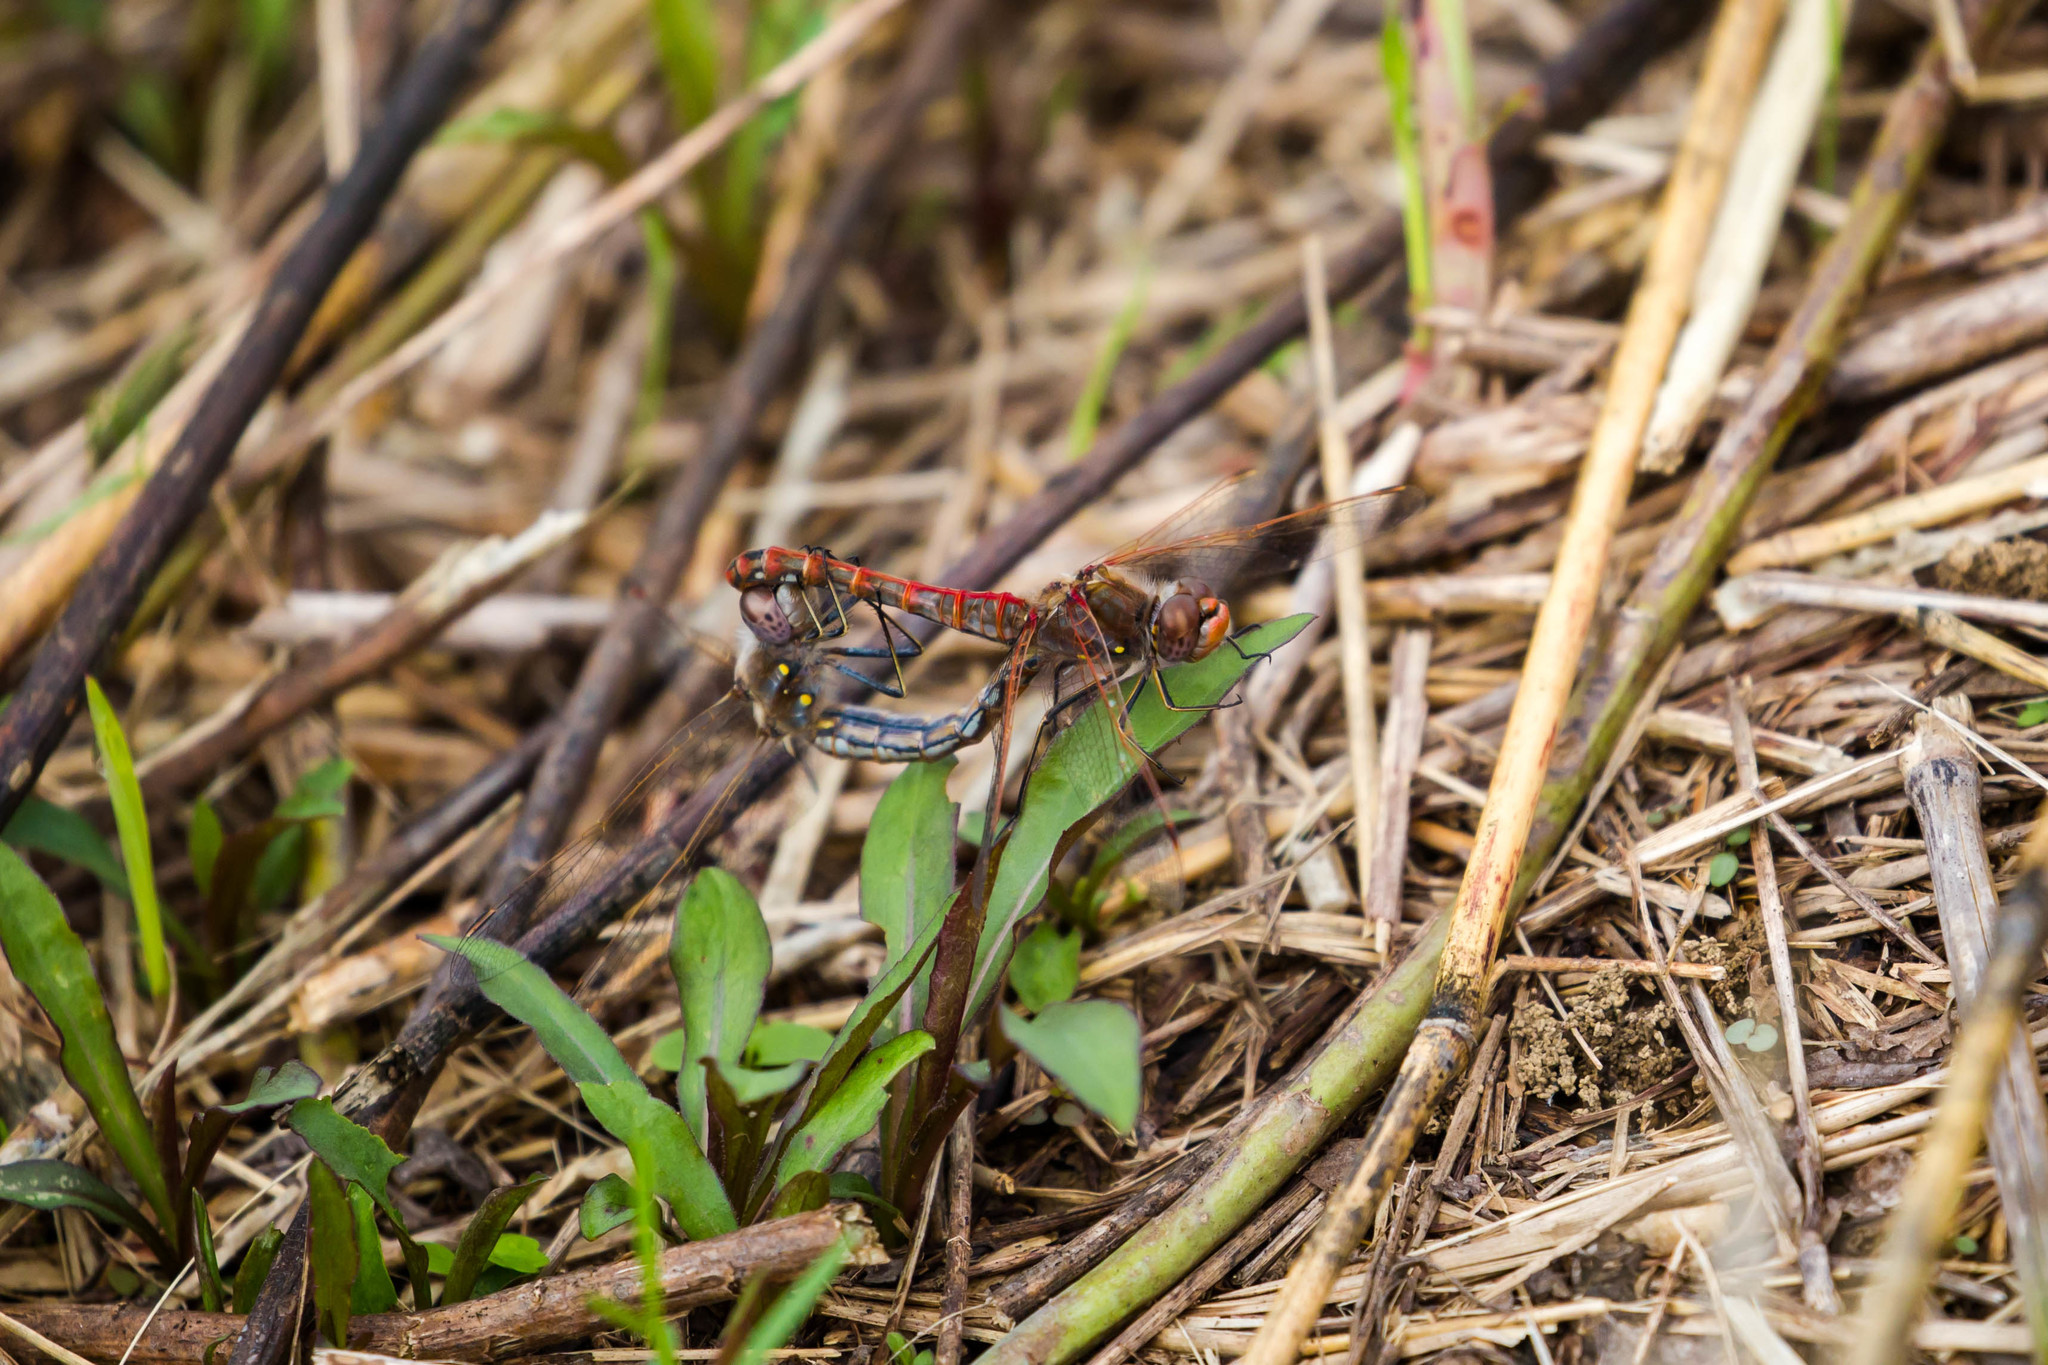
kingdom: Animalia
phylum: Arthropoda
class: Insecta
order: Odonata
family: Libellulidae
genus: Sympetrum
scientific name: Sympetrum corruptum
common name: Variegated meadowhawk
